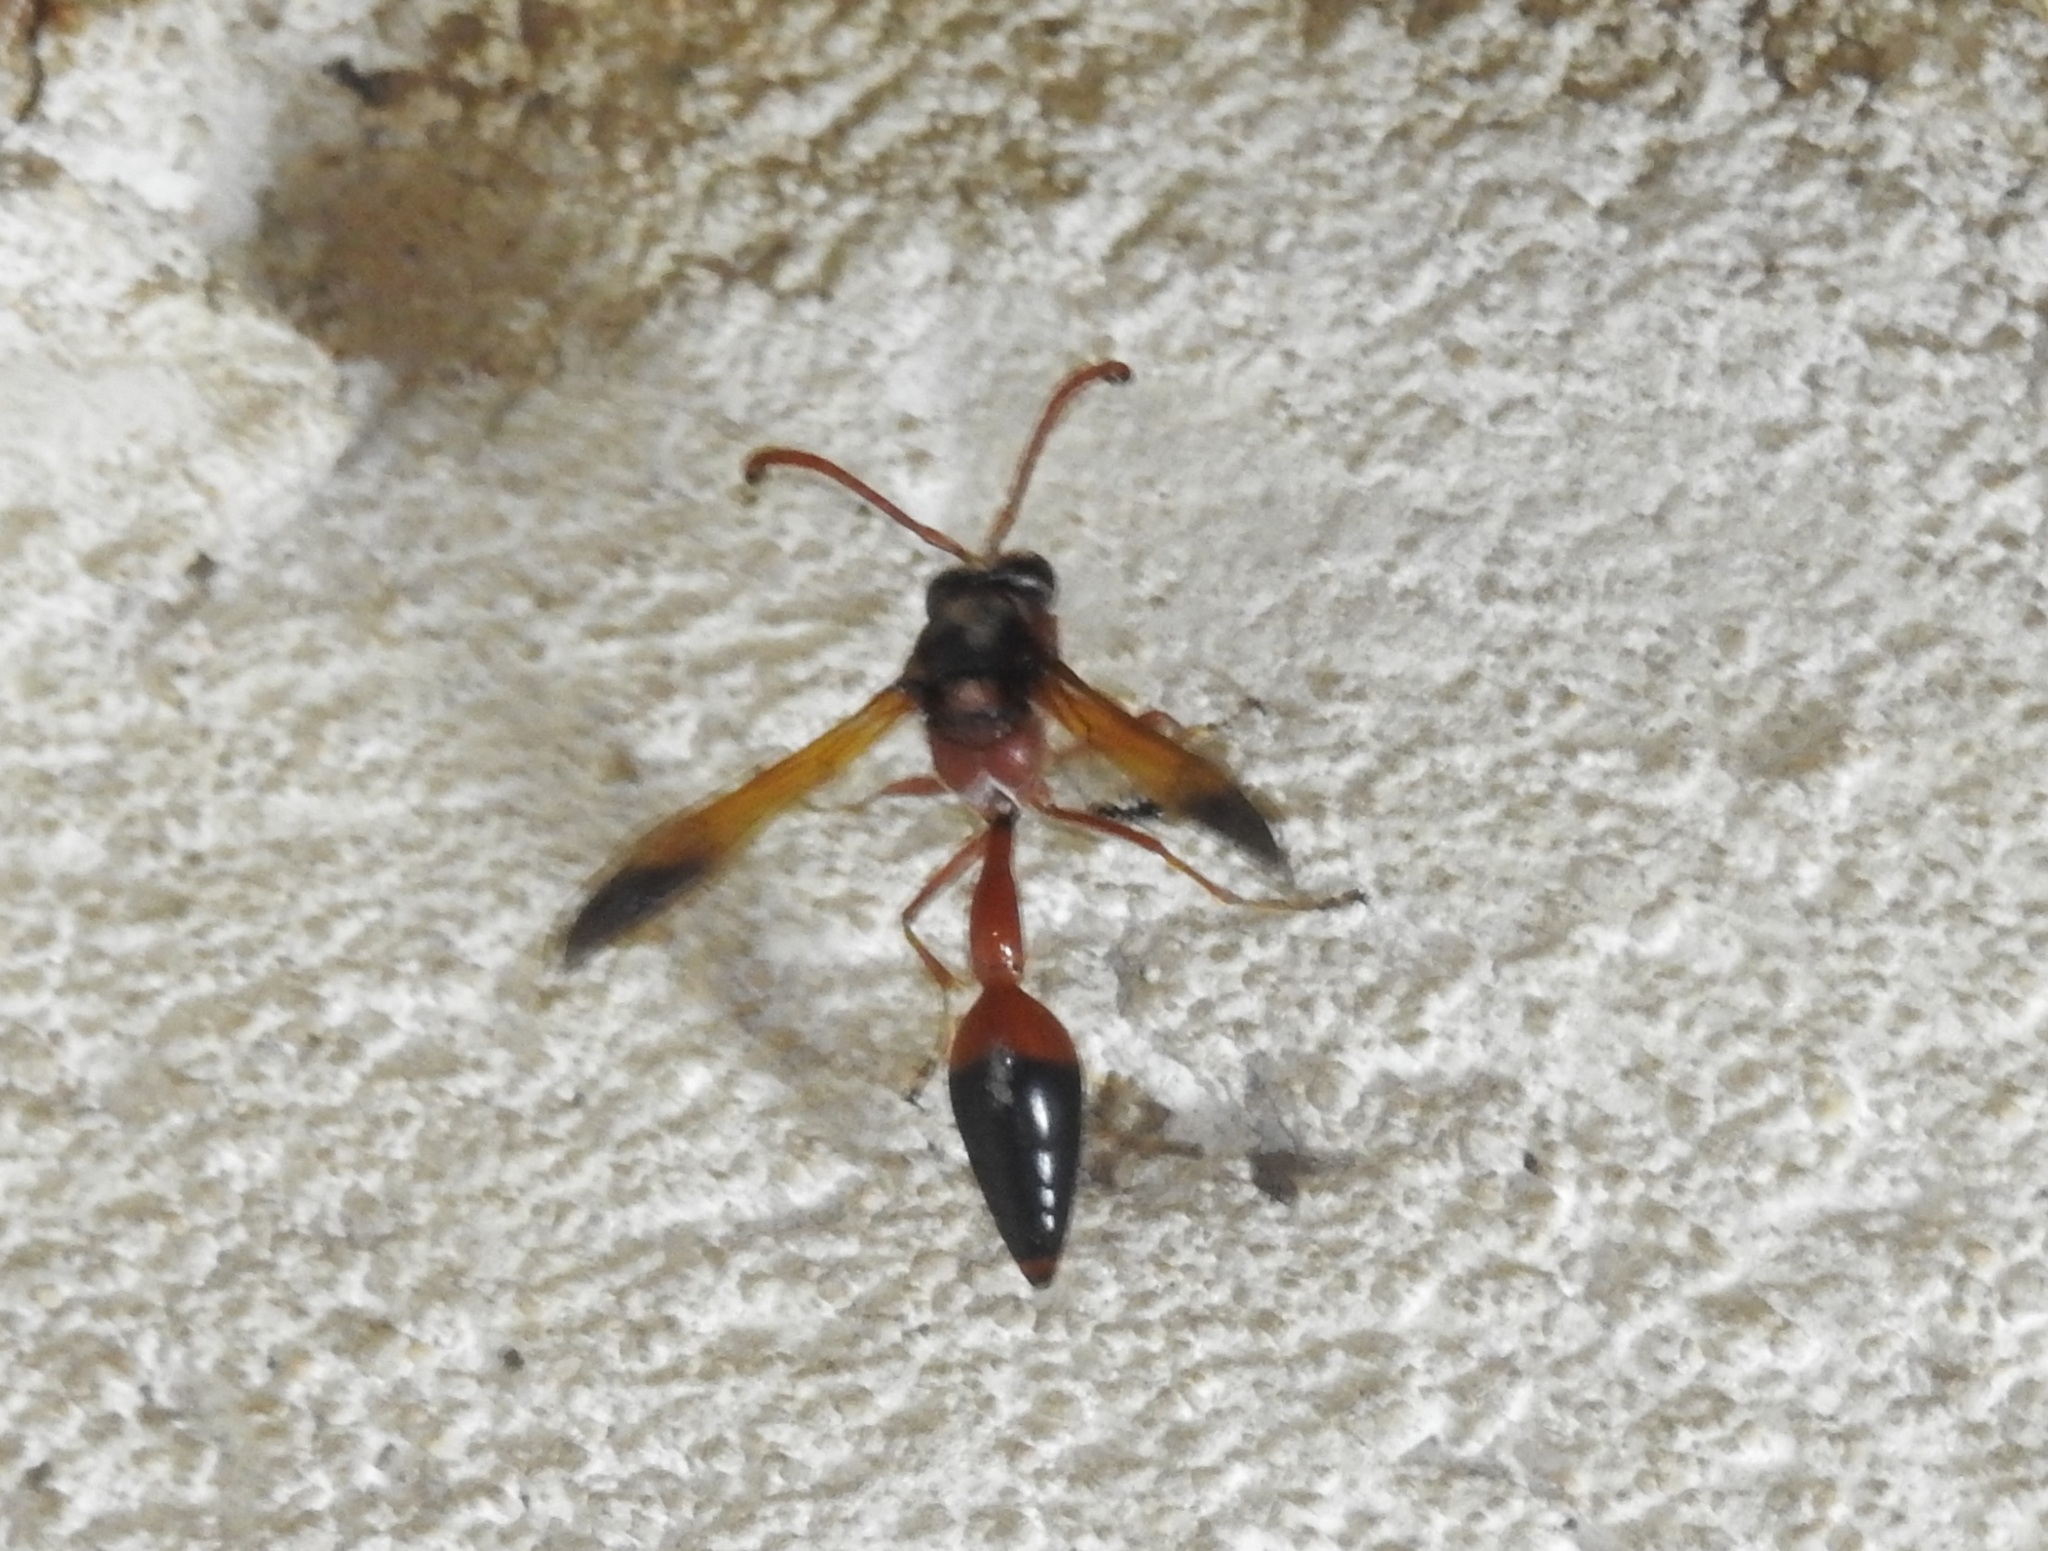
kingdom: Animalia
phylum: Arthropoda
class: Insecta
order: Hymenoptera
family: Eumenidae
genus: Delta
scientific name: Delta dimidiatipenne
